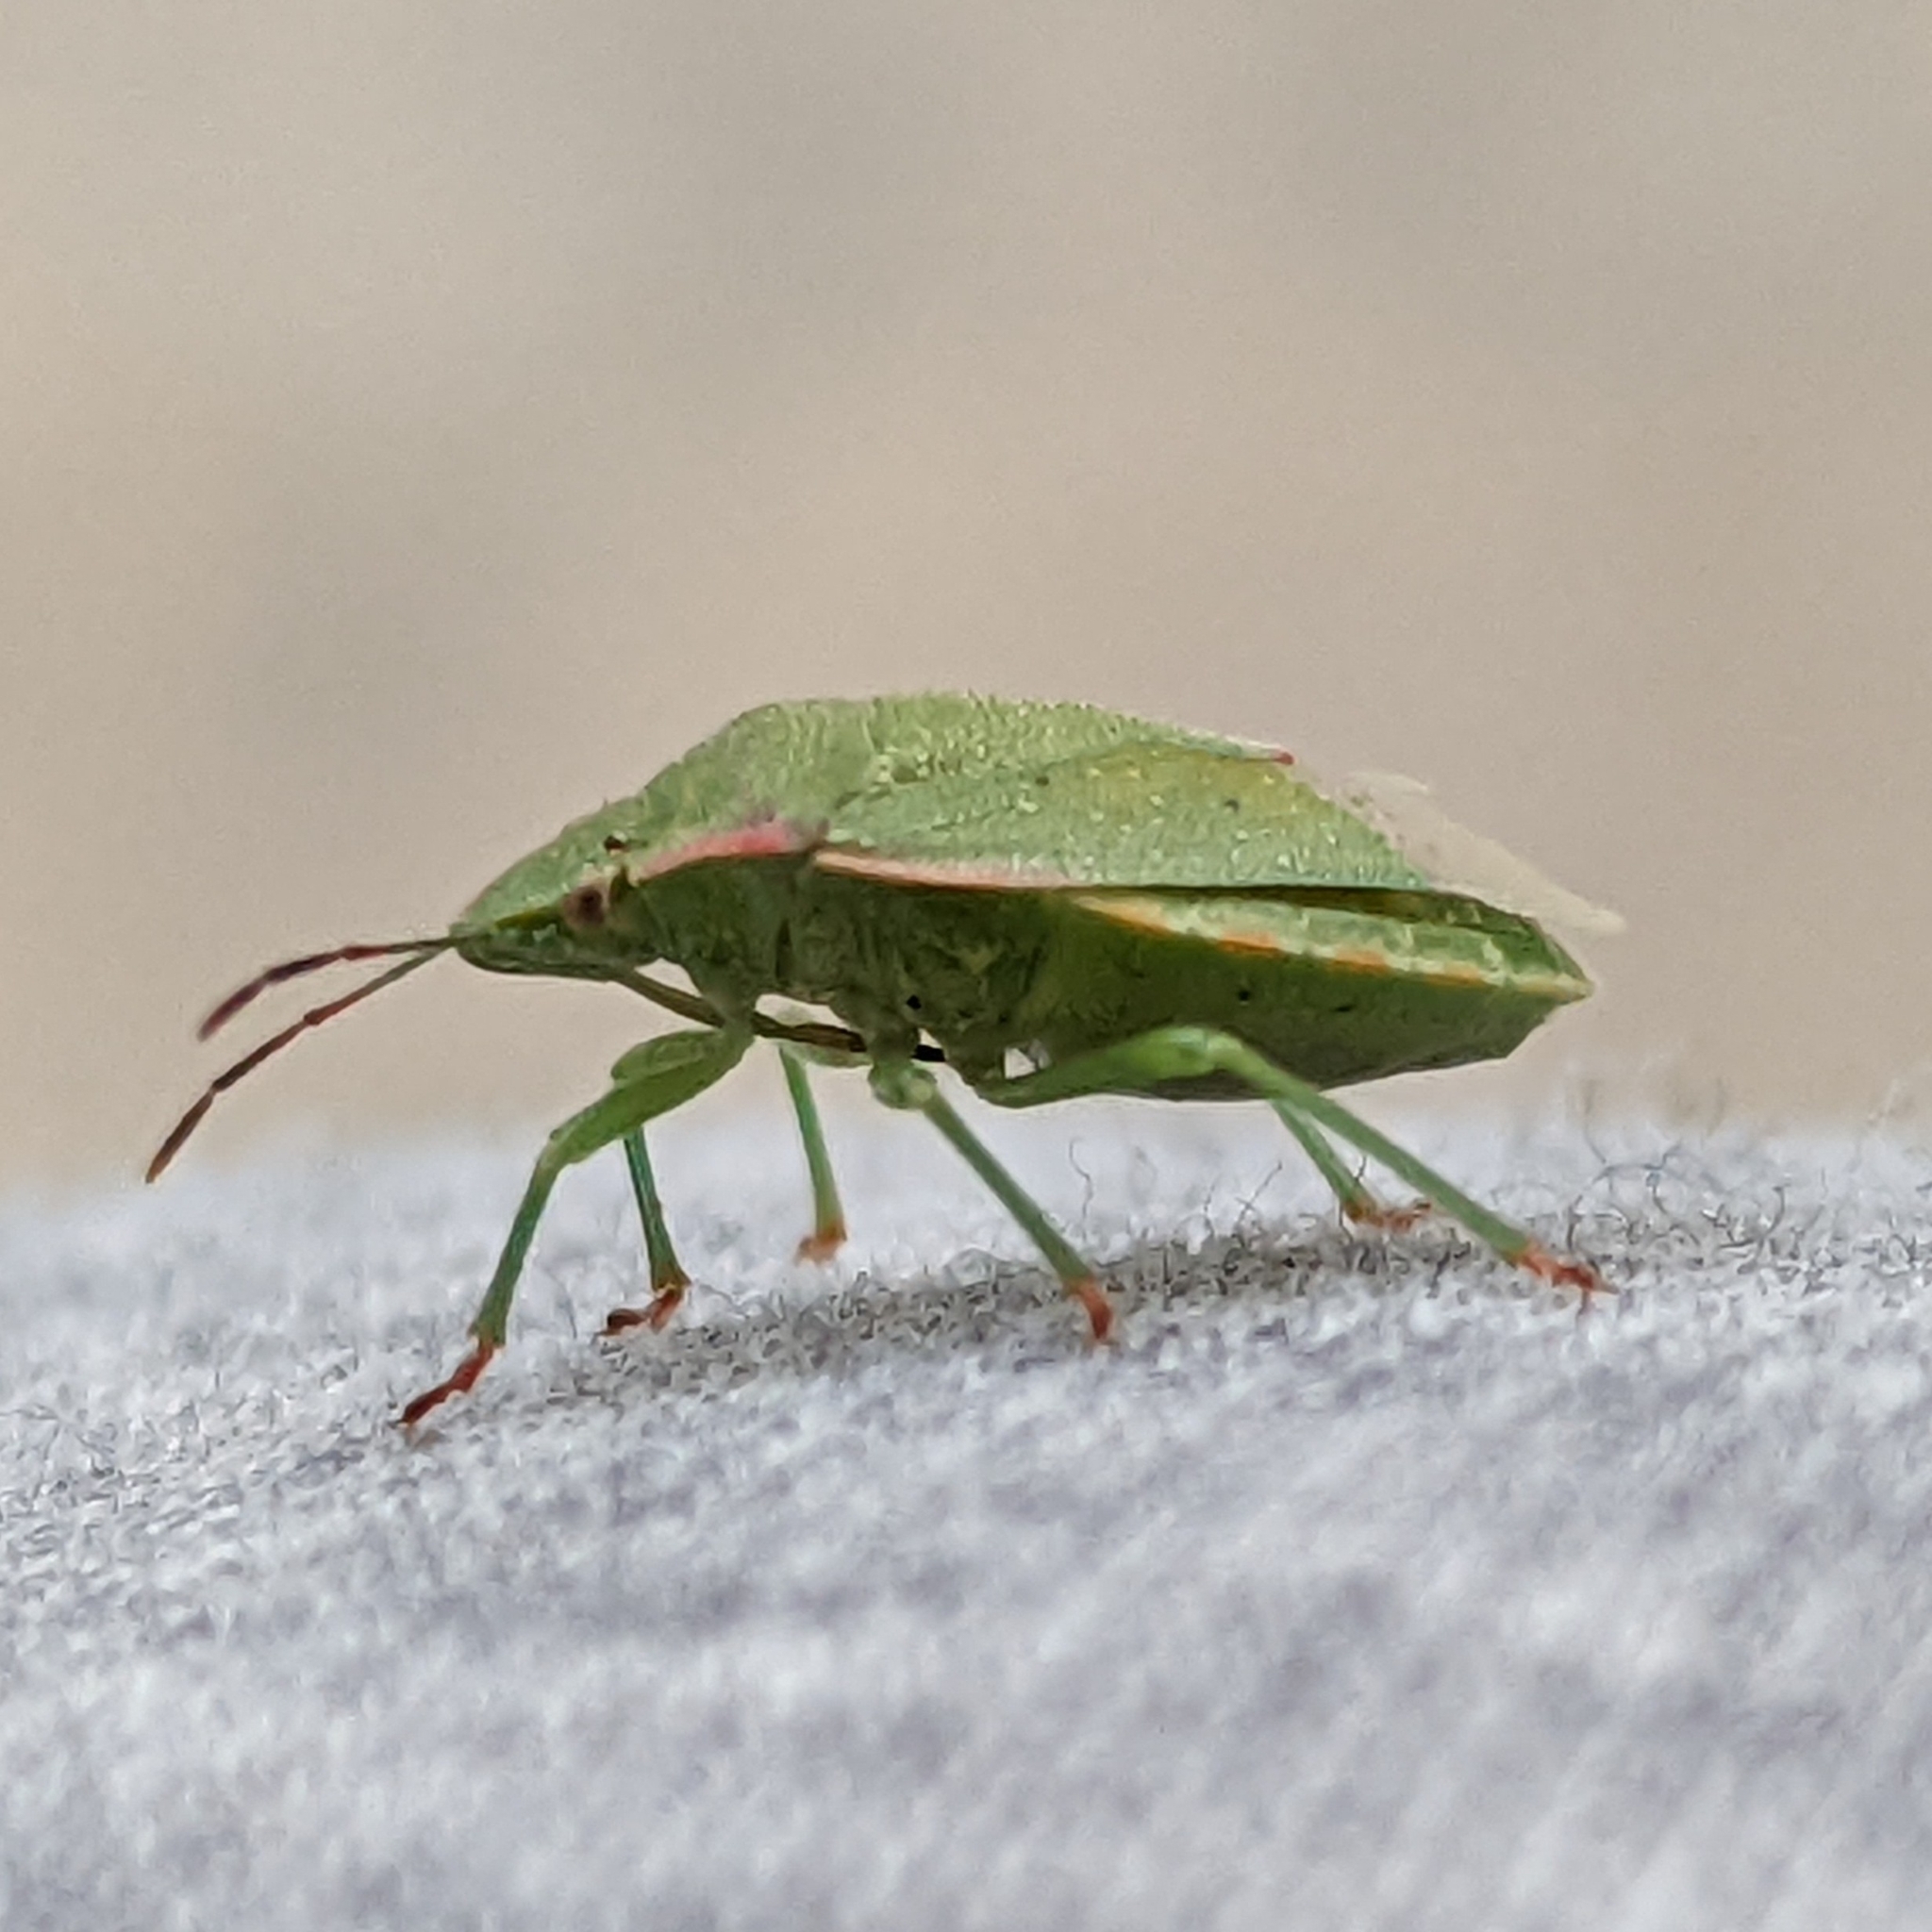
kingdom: Animalia
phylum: Arthropoda
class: Insecta
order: Hemiptera
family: Pentatomidae
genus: Thyanta
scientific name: Thyanta custator
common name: Stink bug
